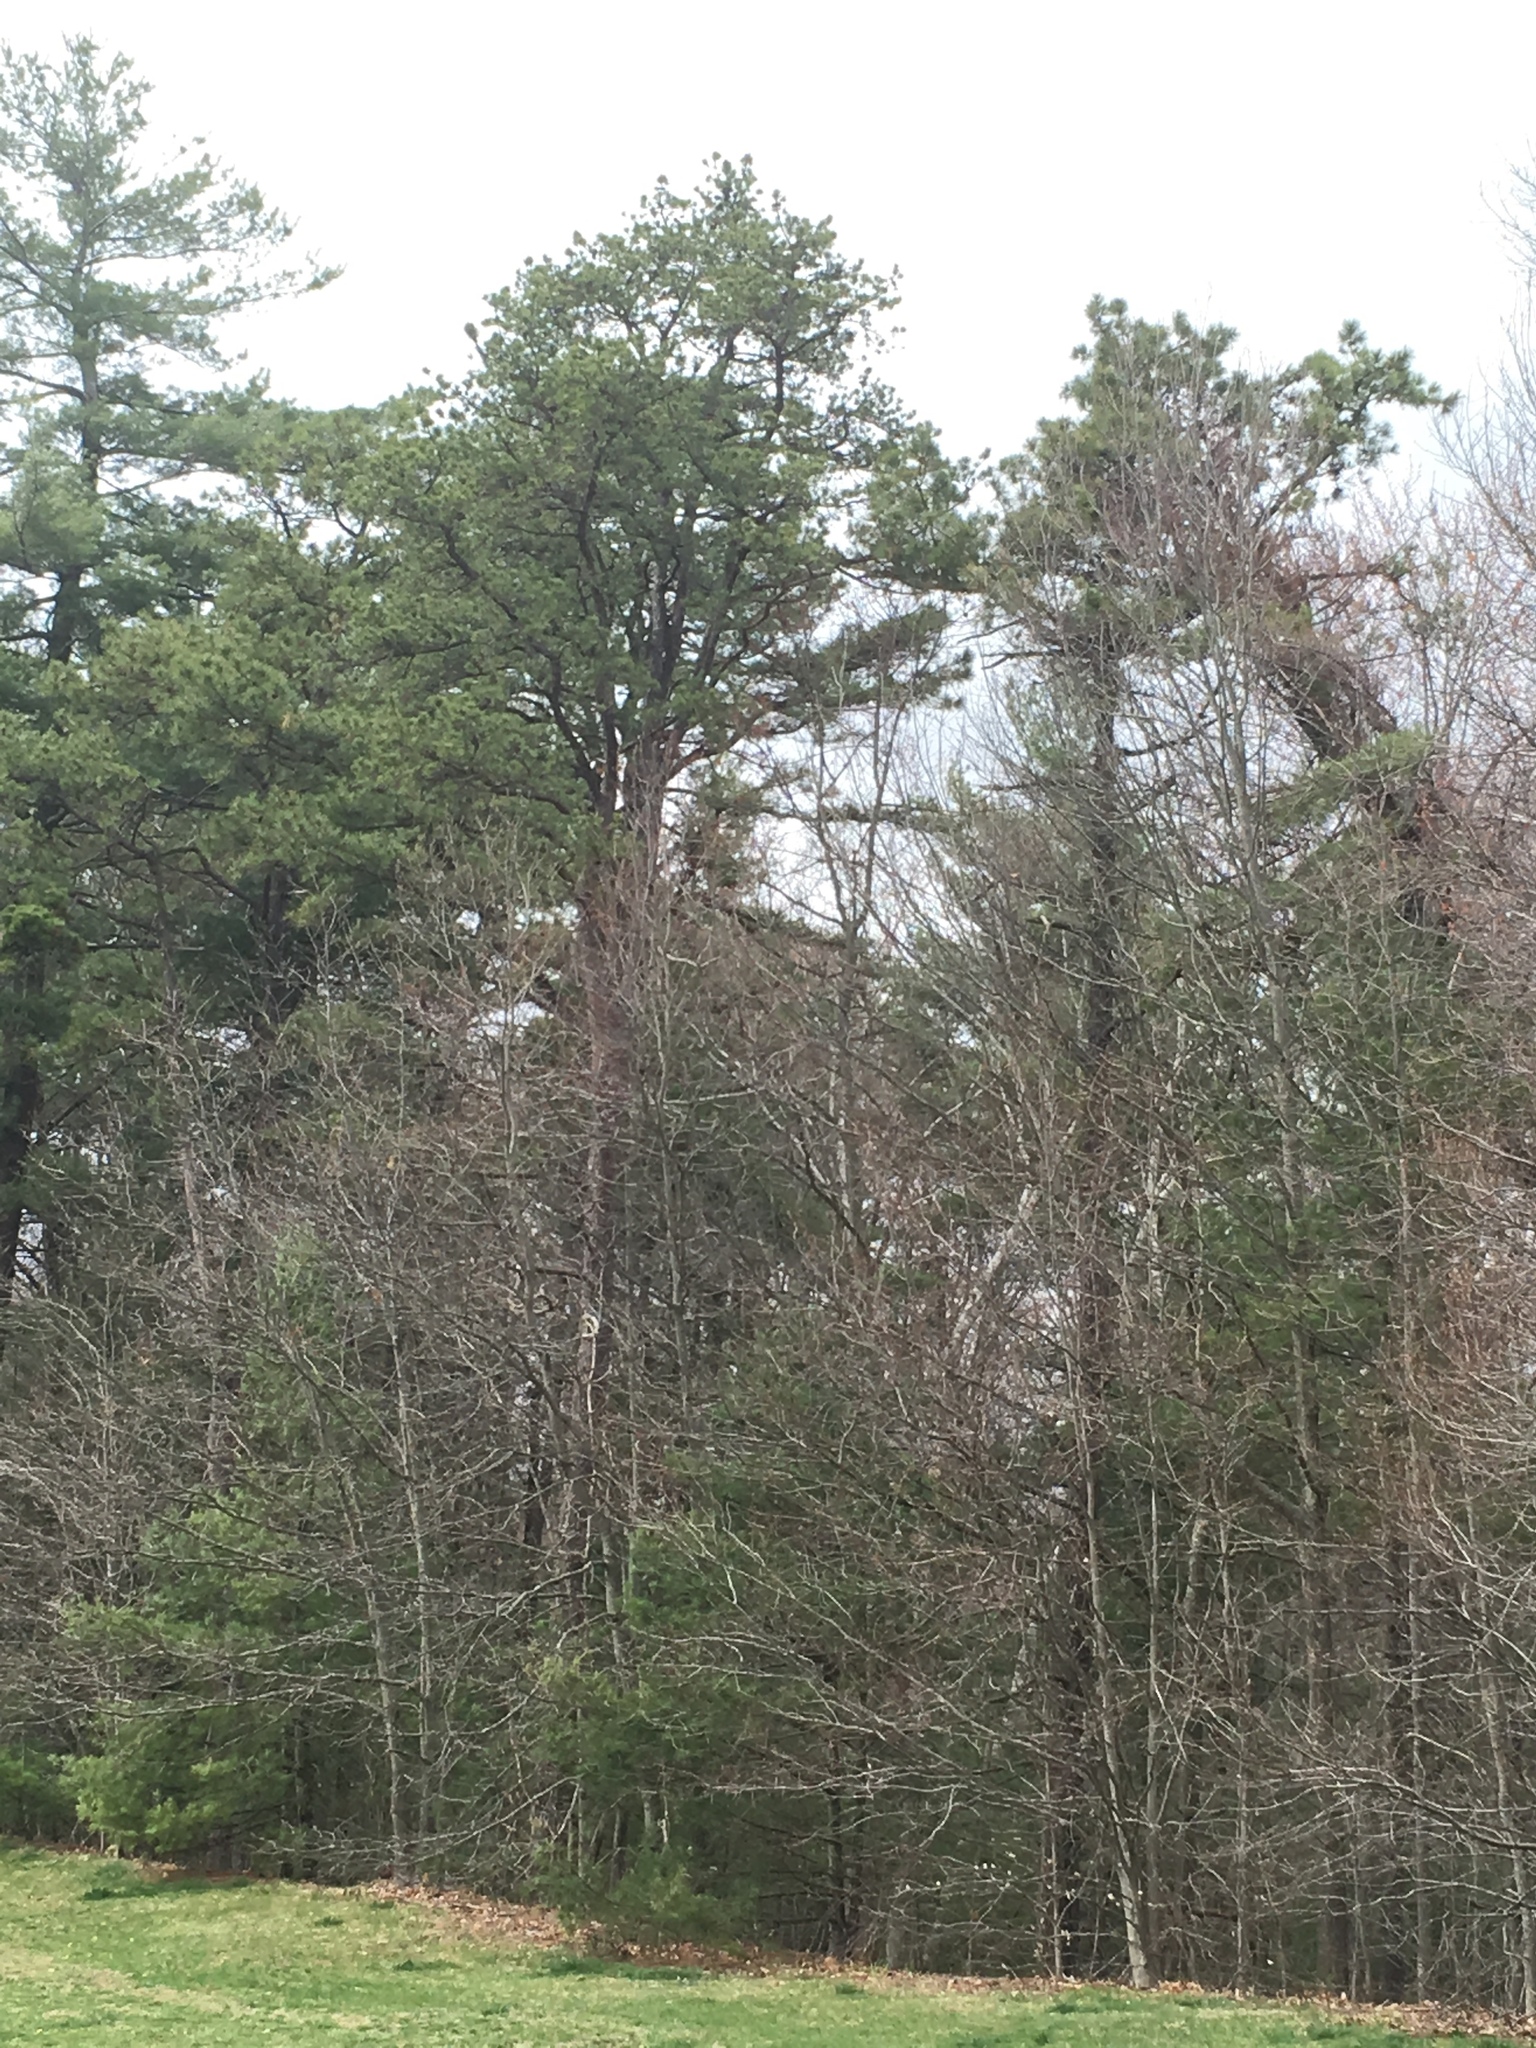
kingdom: Plantae
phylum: Tracheophyta
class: Pinopsida
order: Pinales
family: Pinaceae
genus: Pinus
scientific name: Pinus rigida
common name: Pitch pine
